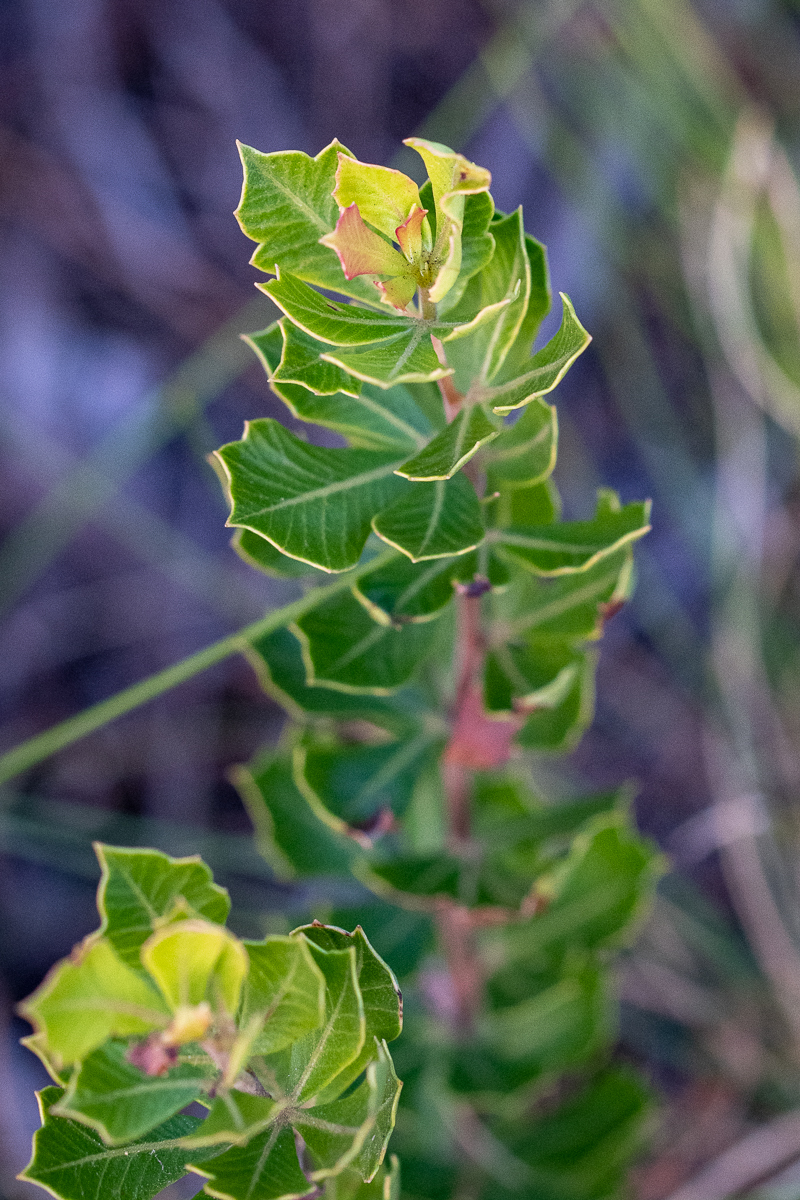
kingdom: Plantae
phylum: Tracheophyta
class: Magnoliopsida
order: Sapindales
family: Anacardiaceae
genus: Searsia
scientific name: Searsia cuneifolia
